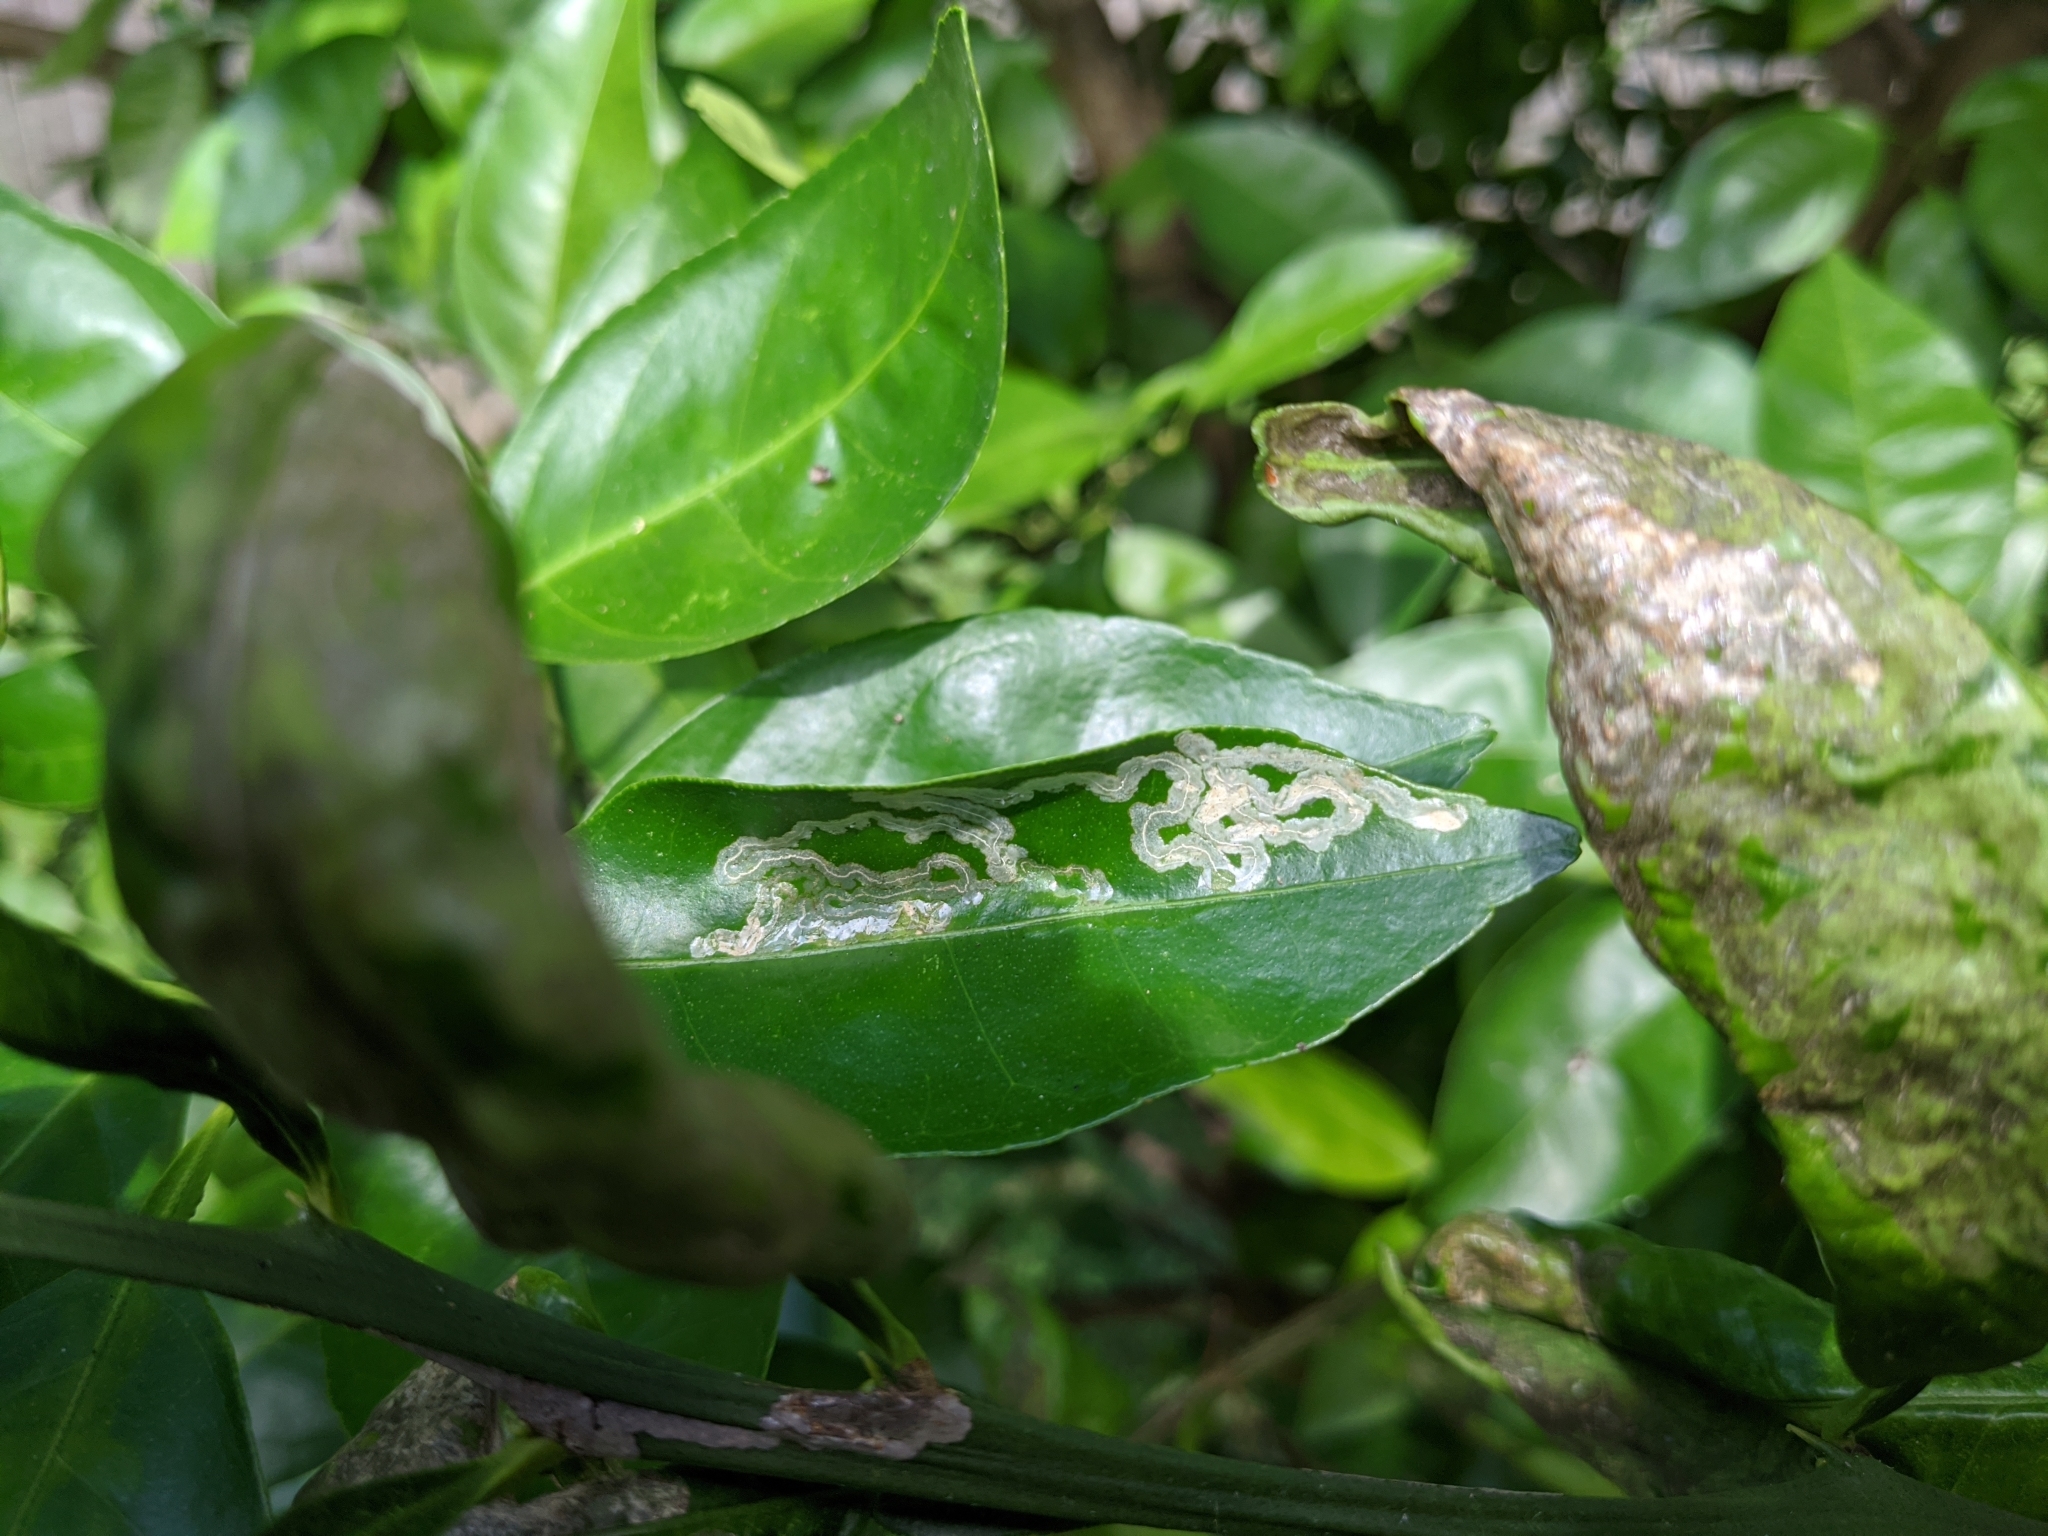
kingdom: Animalia
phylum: Arthropoda
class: Insecta
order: Lepidoptera
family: Gracillariidae
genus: Phyllocnistis
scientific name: Phyllocnistis citrella
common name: Citrus leafminer
